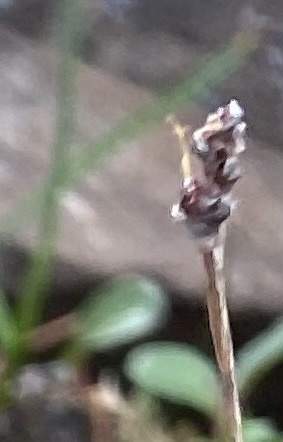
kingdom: Plantae
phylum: Tracheophyta
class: Liliopsida
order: Poales
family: Juncaceae
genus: Luzula
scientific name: Luzula nivalis
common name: Arctic woodrush
